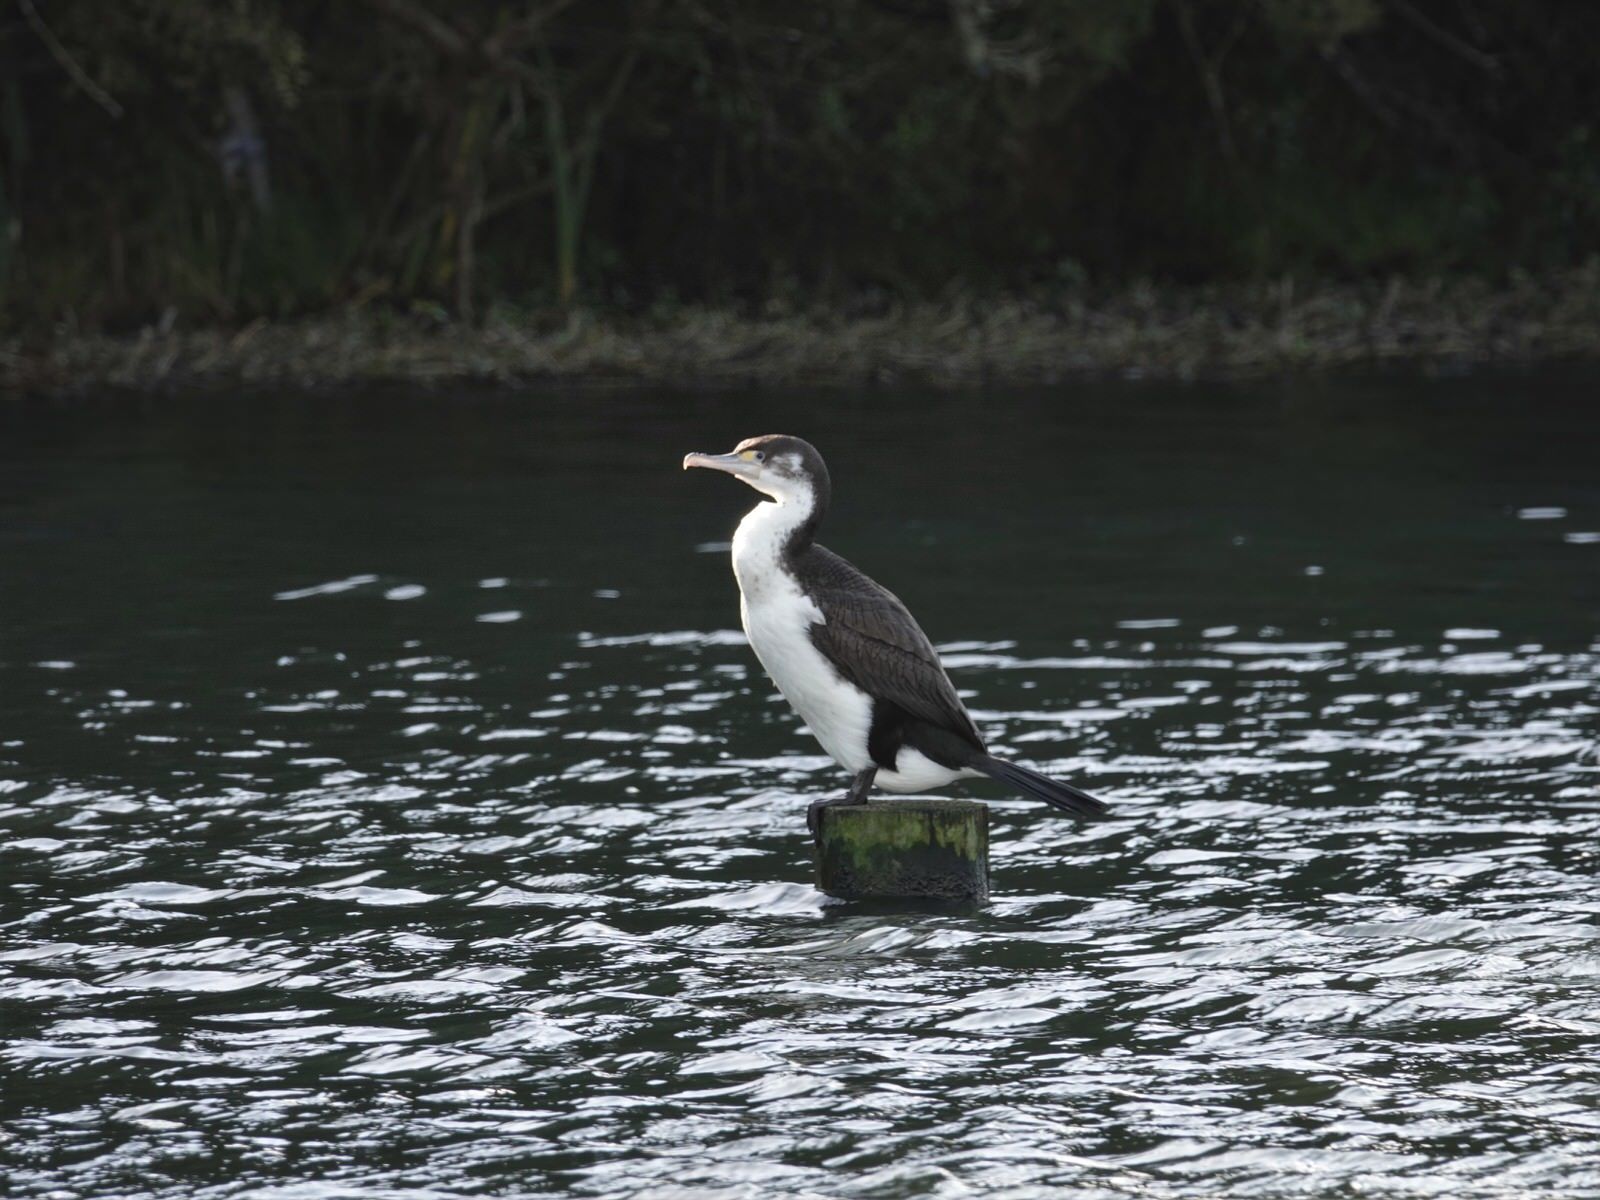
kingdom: Animalia
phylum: Chordata
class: Aves
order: Suliformes
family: Phalacrocoracidae
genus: Phalacrocorax
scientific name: Phalacrocorax varius
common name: Pied cormorant
